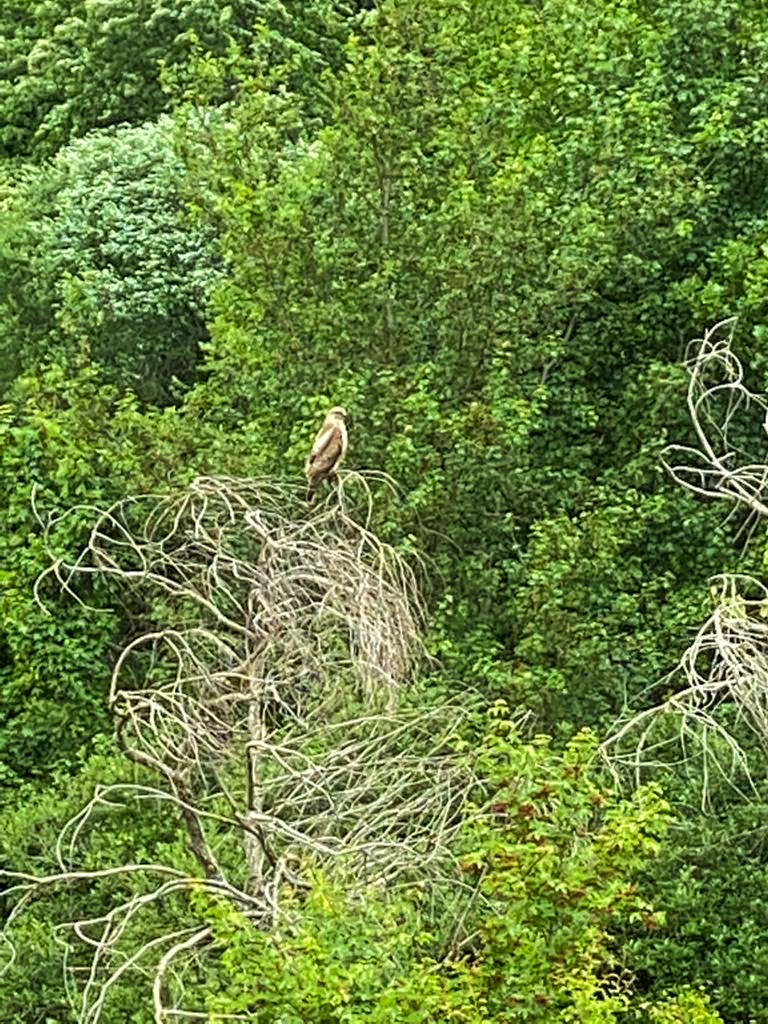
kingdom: Animalia
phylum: Chordata
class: Aves
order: Accipitriformes
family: Accipitridae
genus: Buteo
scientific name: Buteo buteo
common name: Common buzzard
